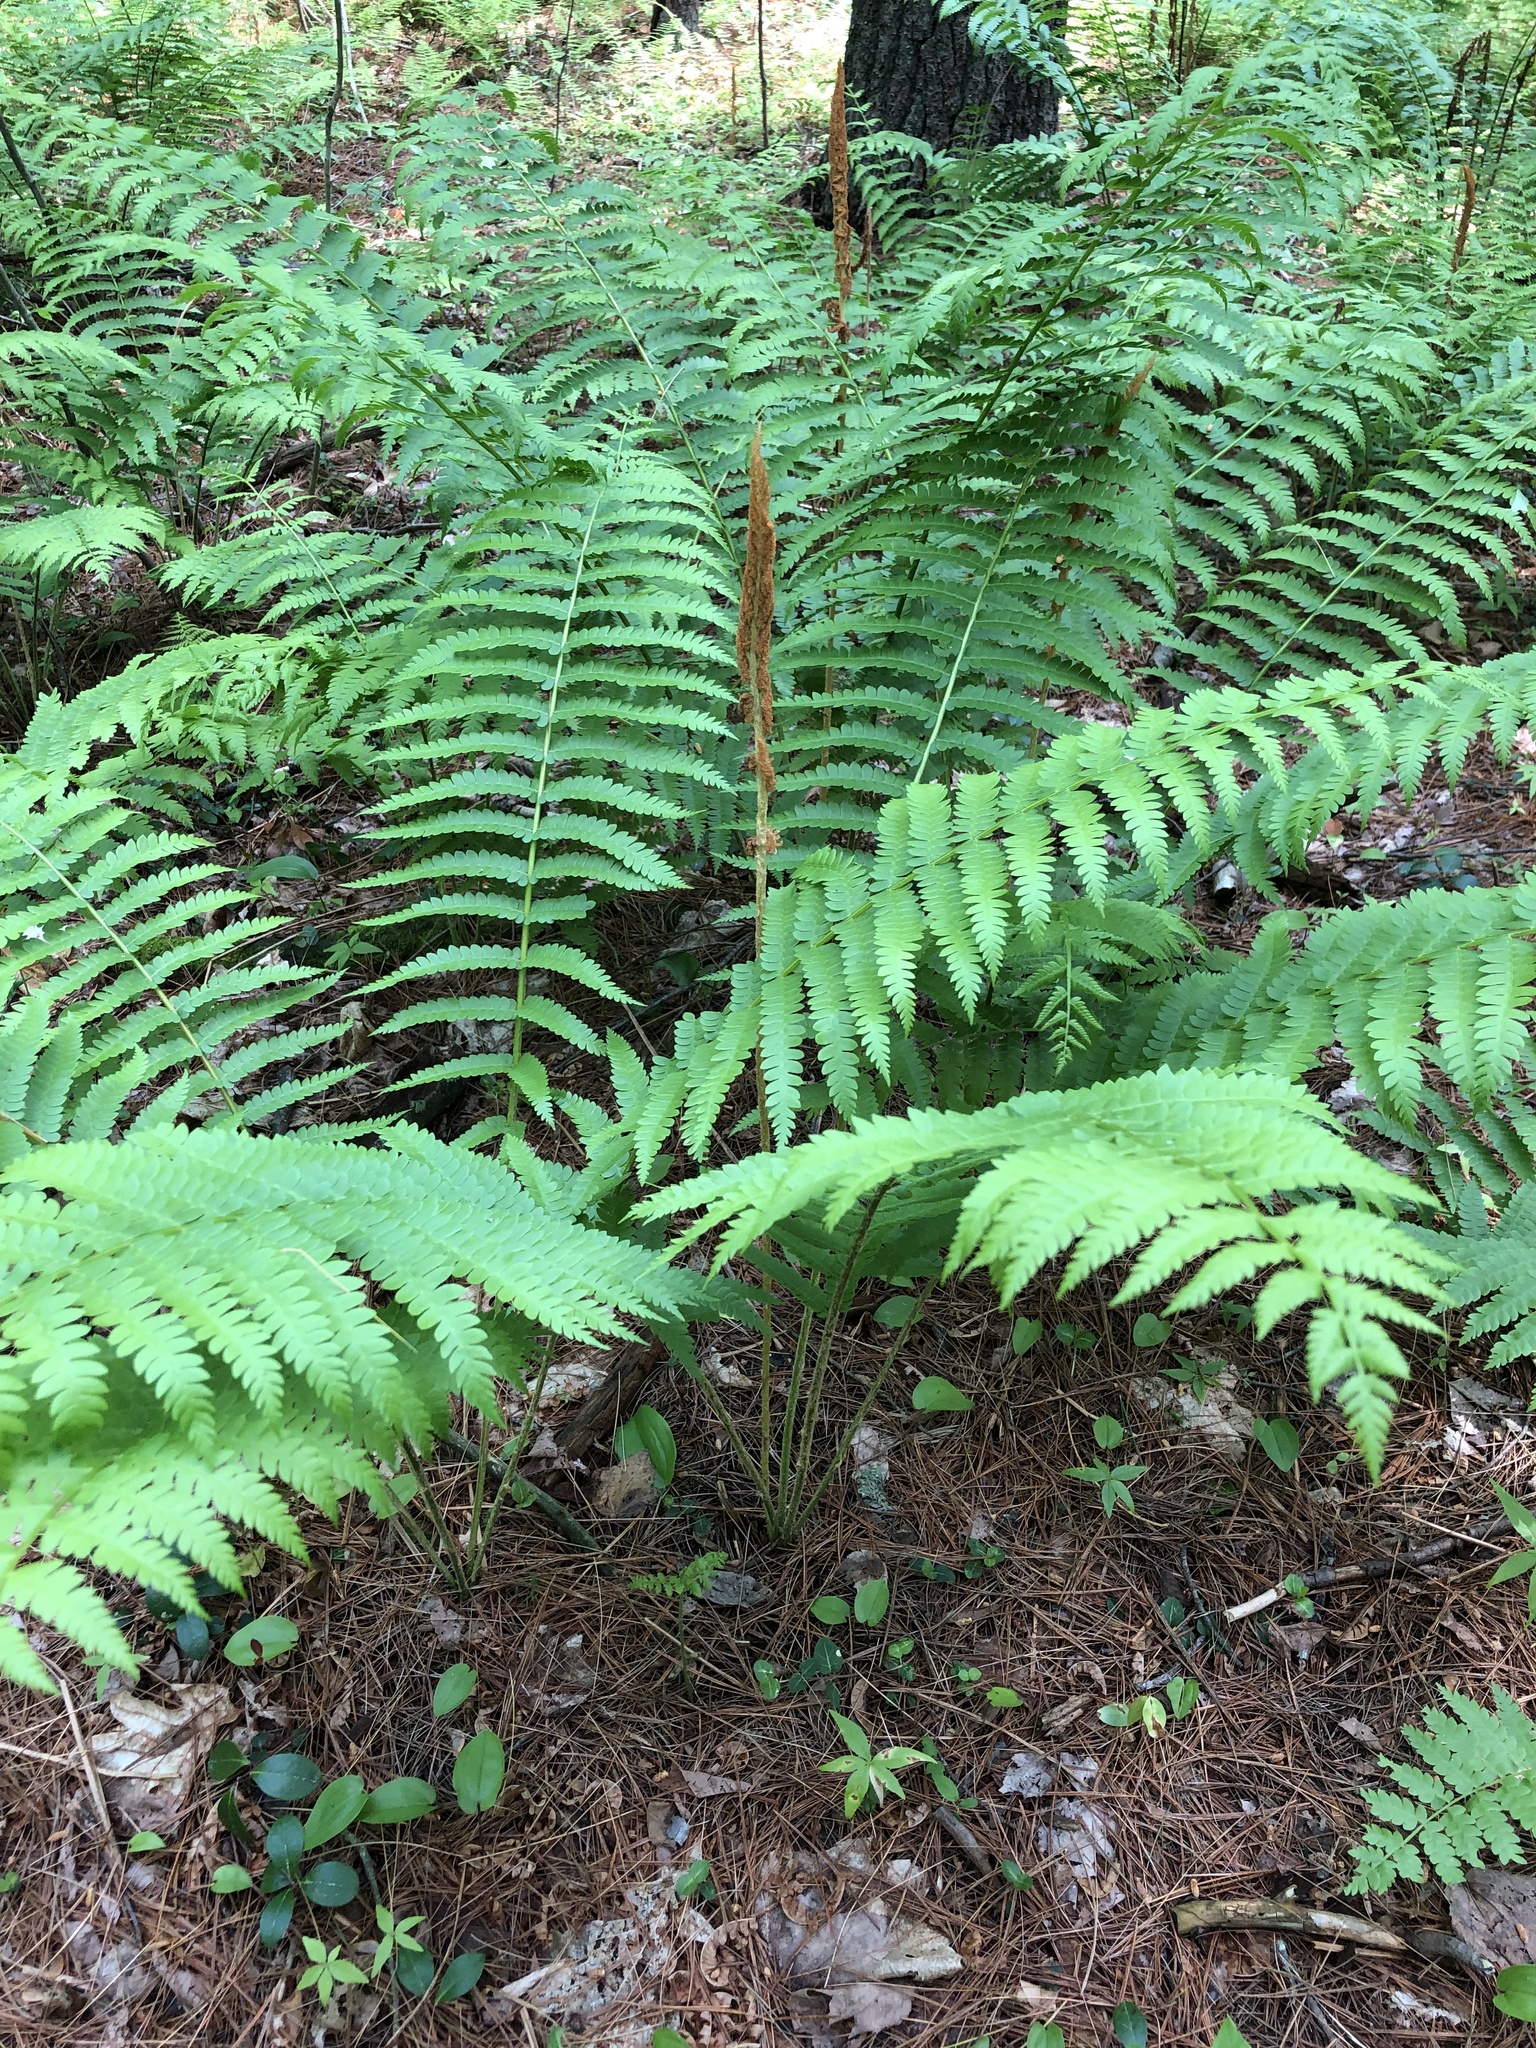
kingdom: Plantae
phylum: Tracheophyta
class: Polypodiopsida
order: Osmundales
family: Osmundaceae
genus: Osmundastrum
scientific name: Osmundastrum cinnamomeum
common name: Cinnamon fern
